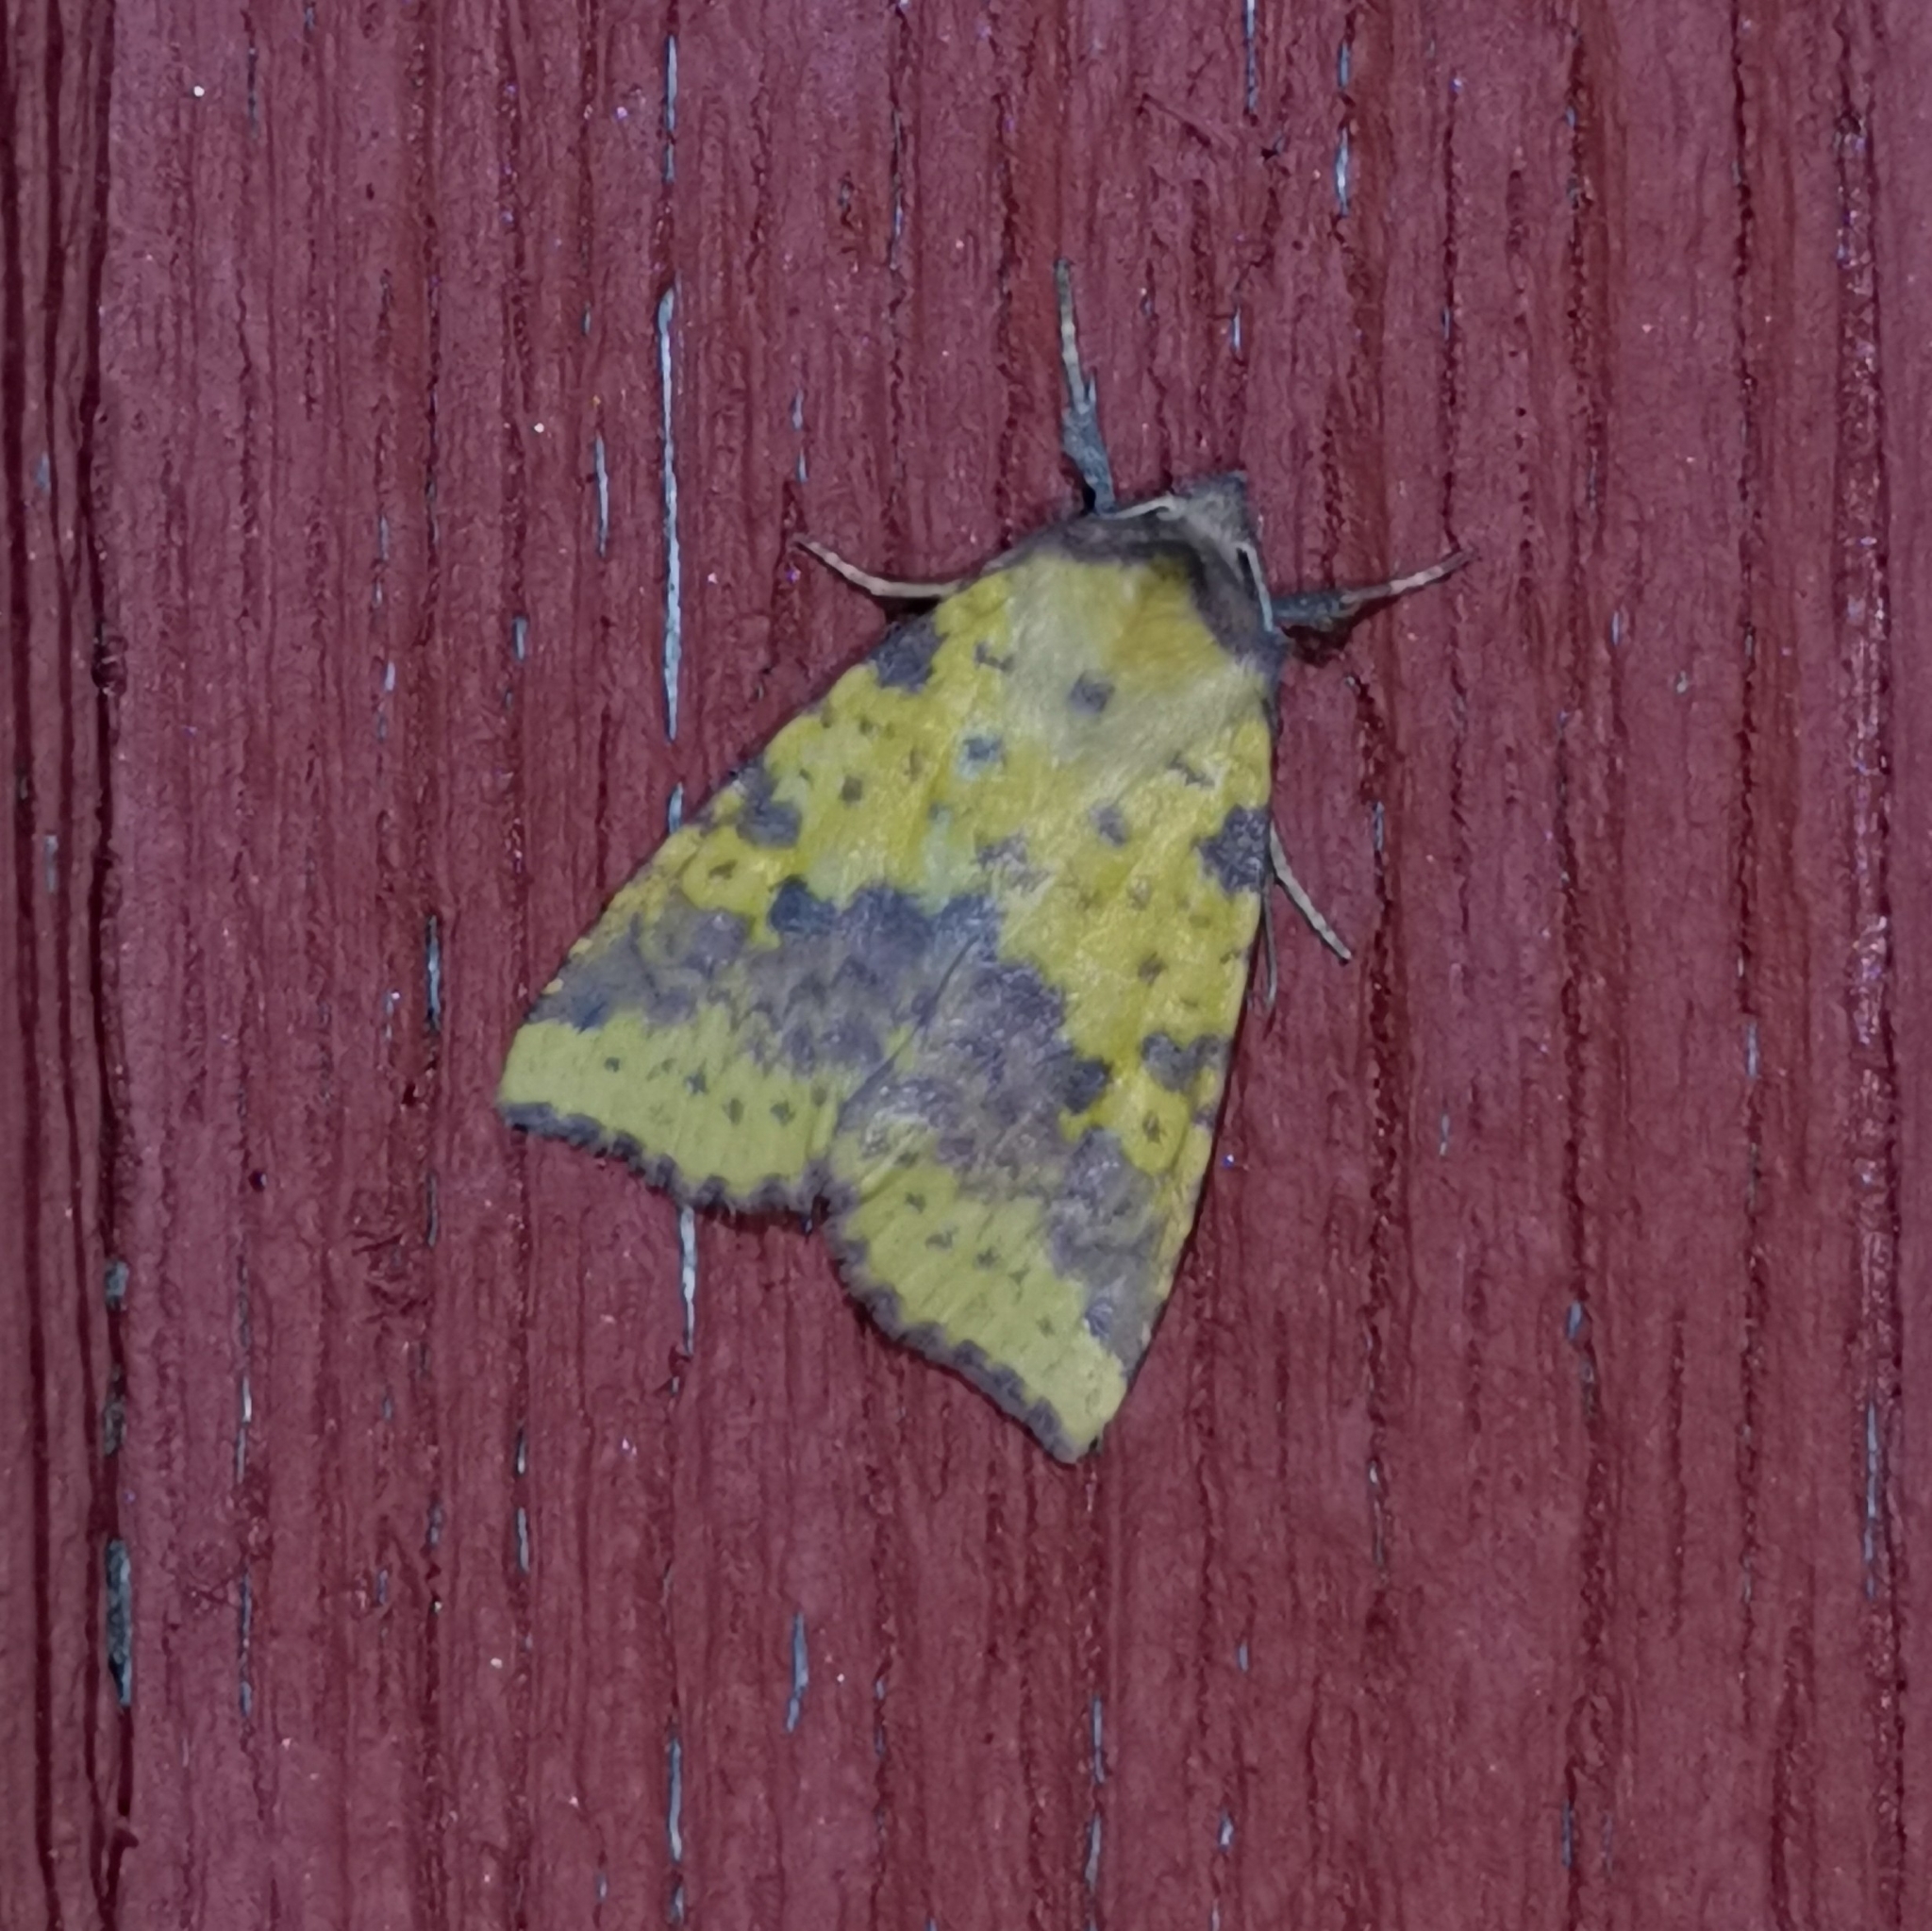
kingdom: Animalia
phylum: Arthropoda
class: Insecta
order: Lepidoptera
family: Noctuidae
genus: Xanthia
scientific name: Xanthia togata
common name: Pink-barred sallow
